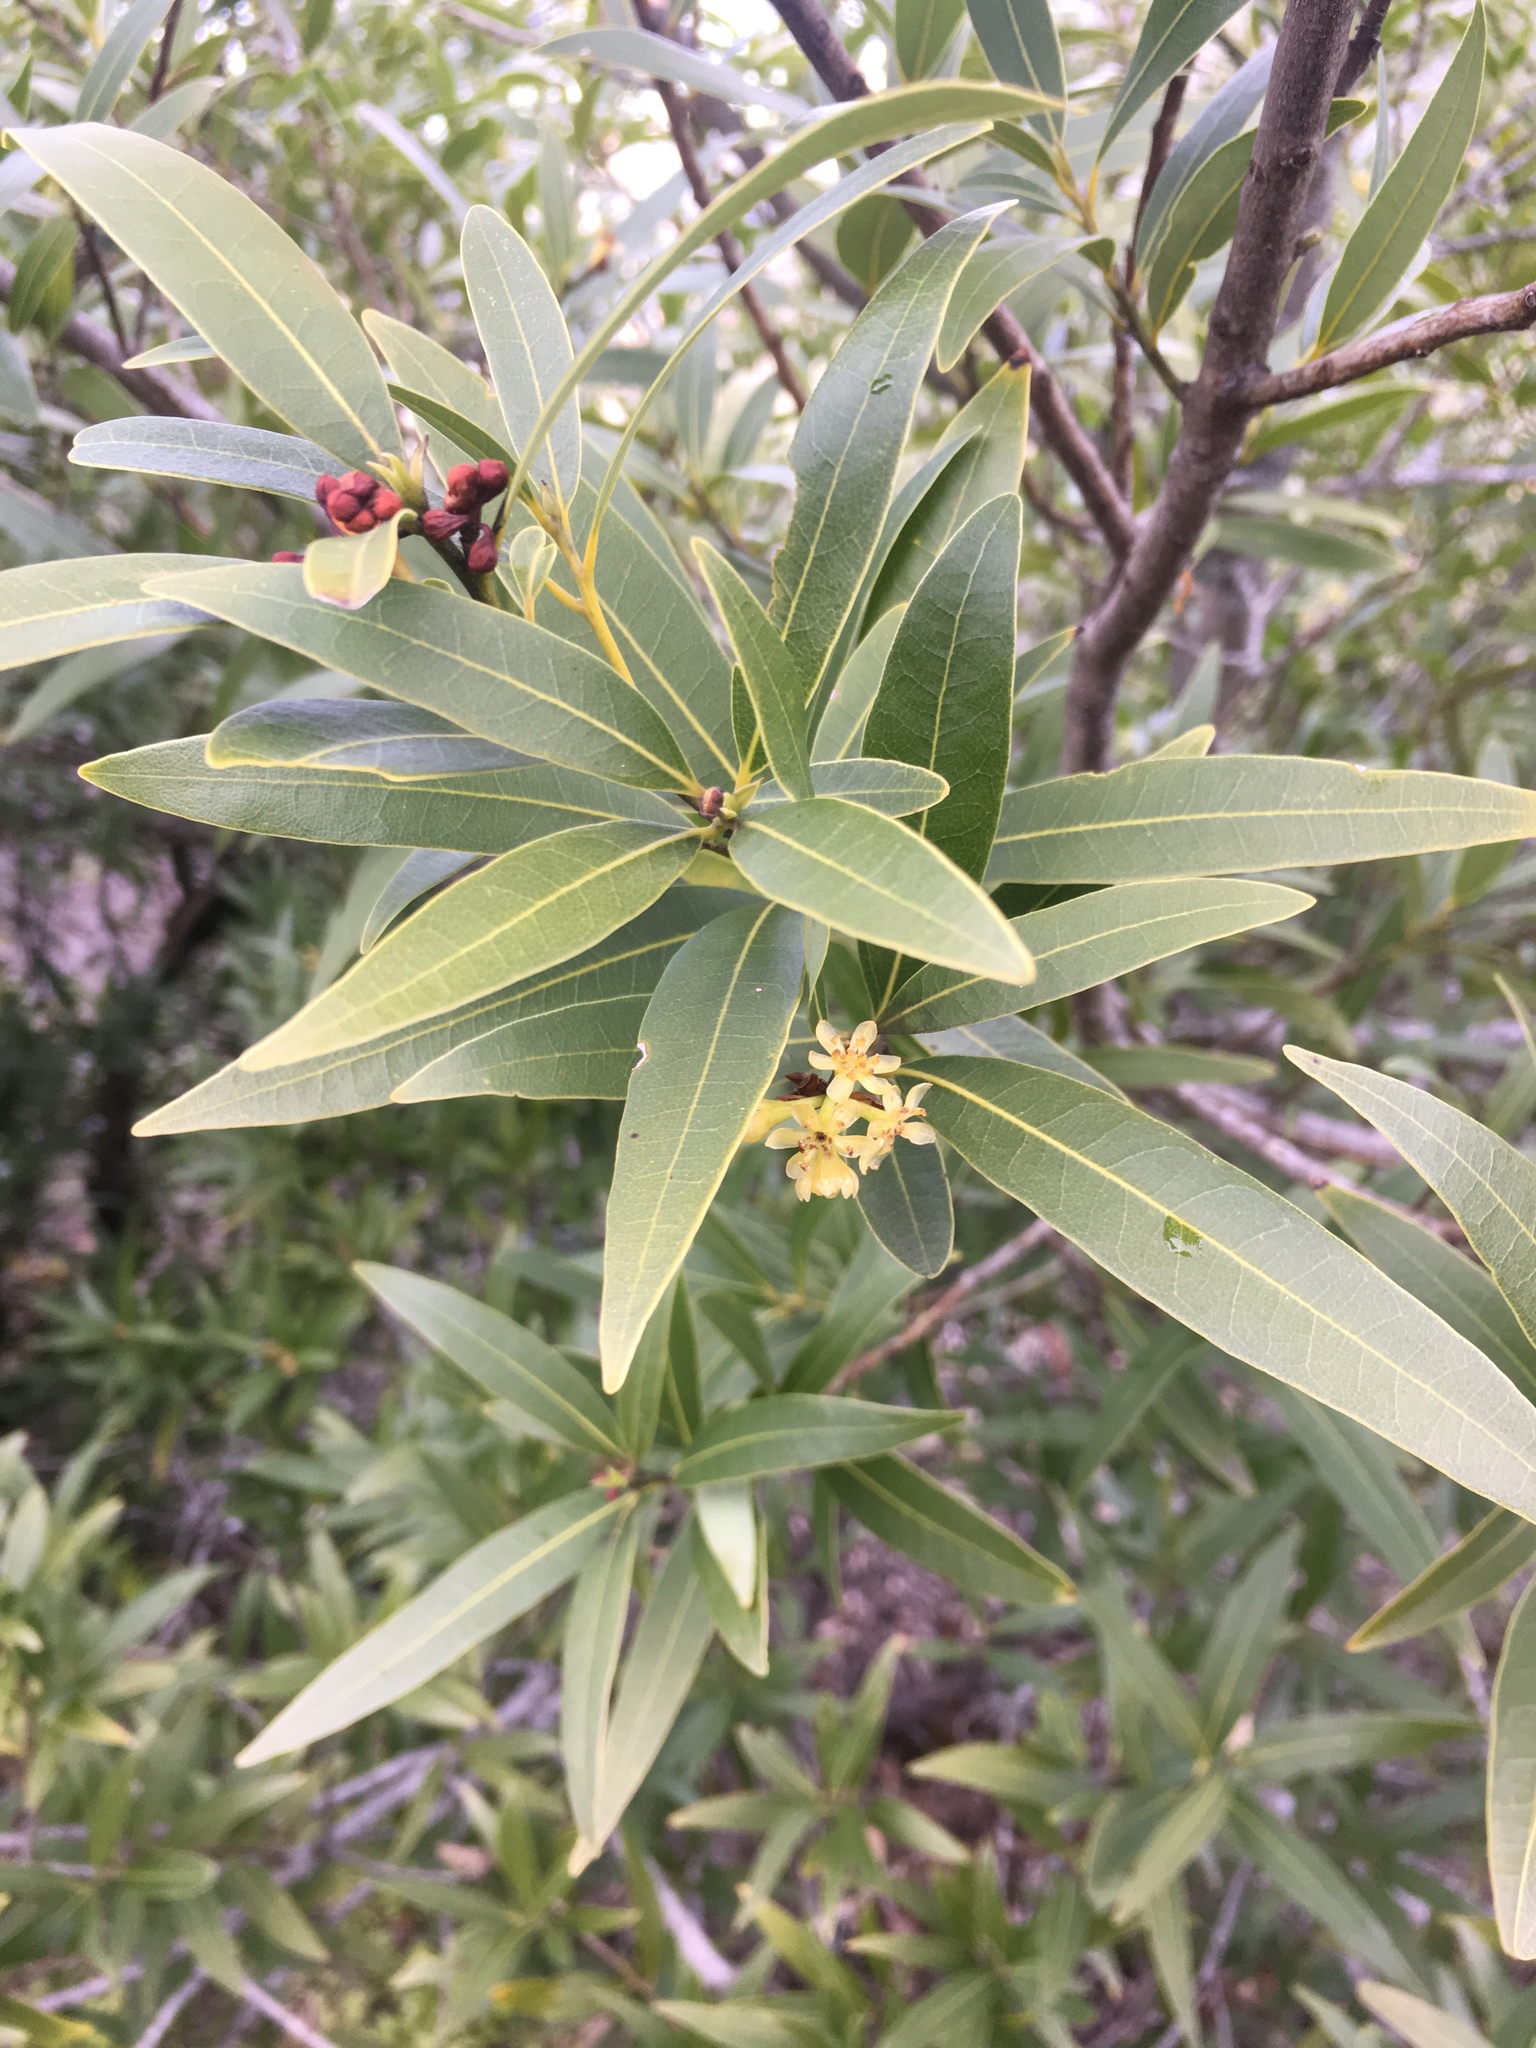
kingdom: Plantae
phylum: Tracheophyta
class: Magnoliopsida
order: Laurales
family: Lauraceae
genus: Umbellularia
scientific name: Umbellularia californica
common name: California bay
